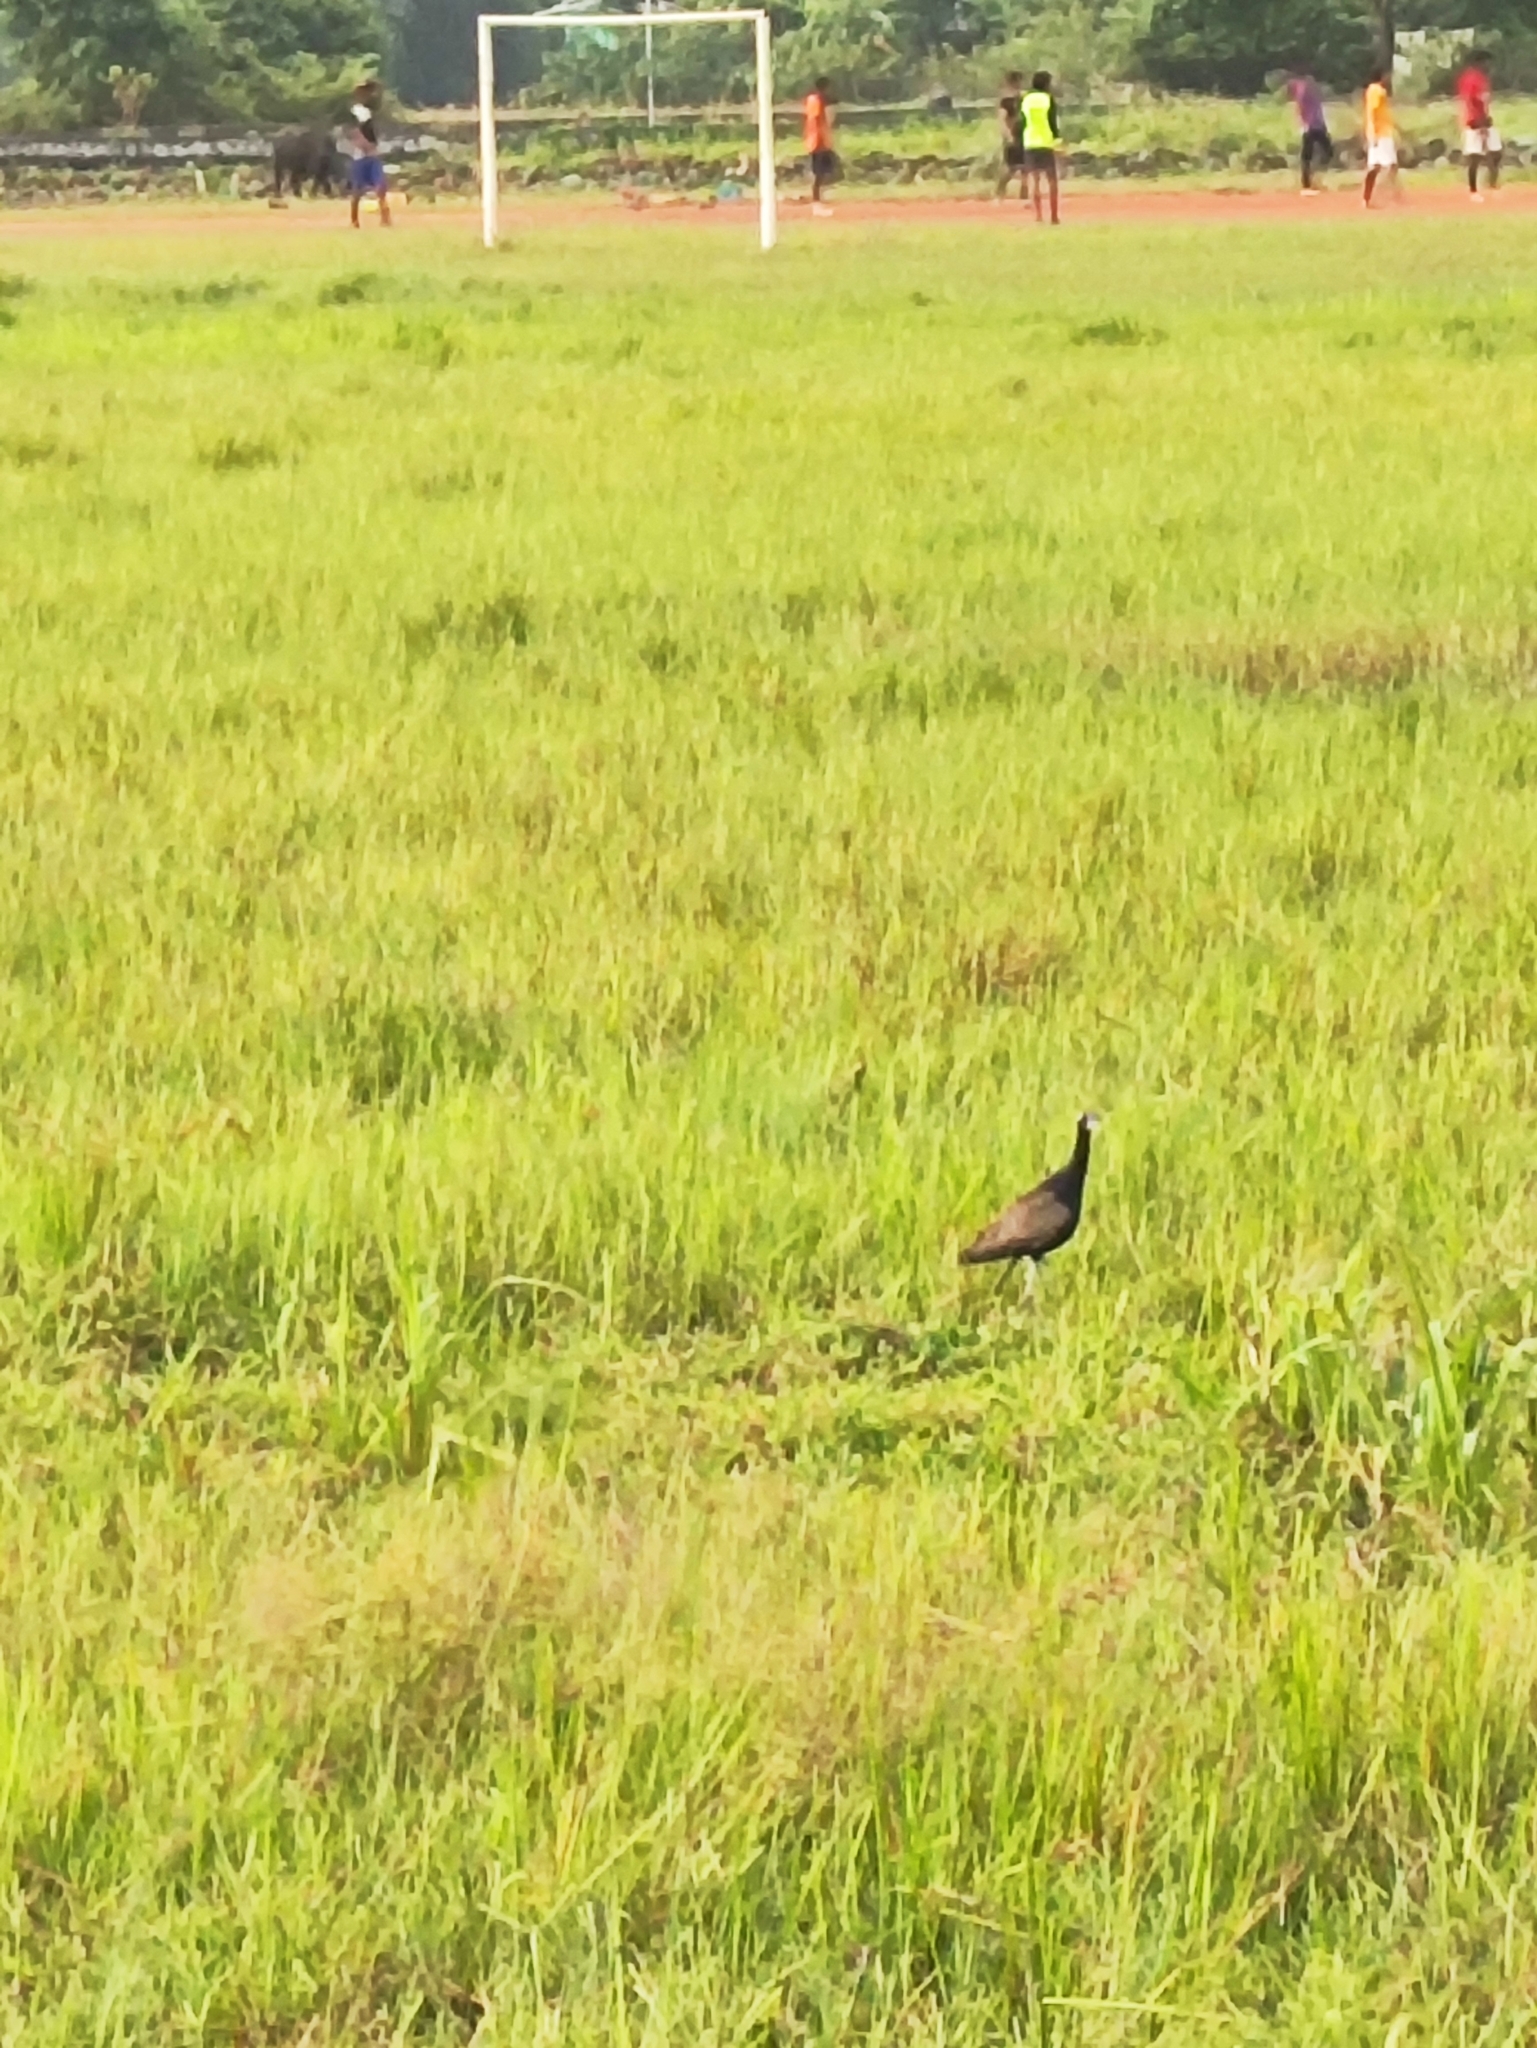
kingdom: Animalia
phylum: Chordata
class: Aves
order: Charadriiformes
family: Jacanidae
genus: Metopidius
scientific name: Metopidius indicus
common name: Bronze-winged jacana
